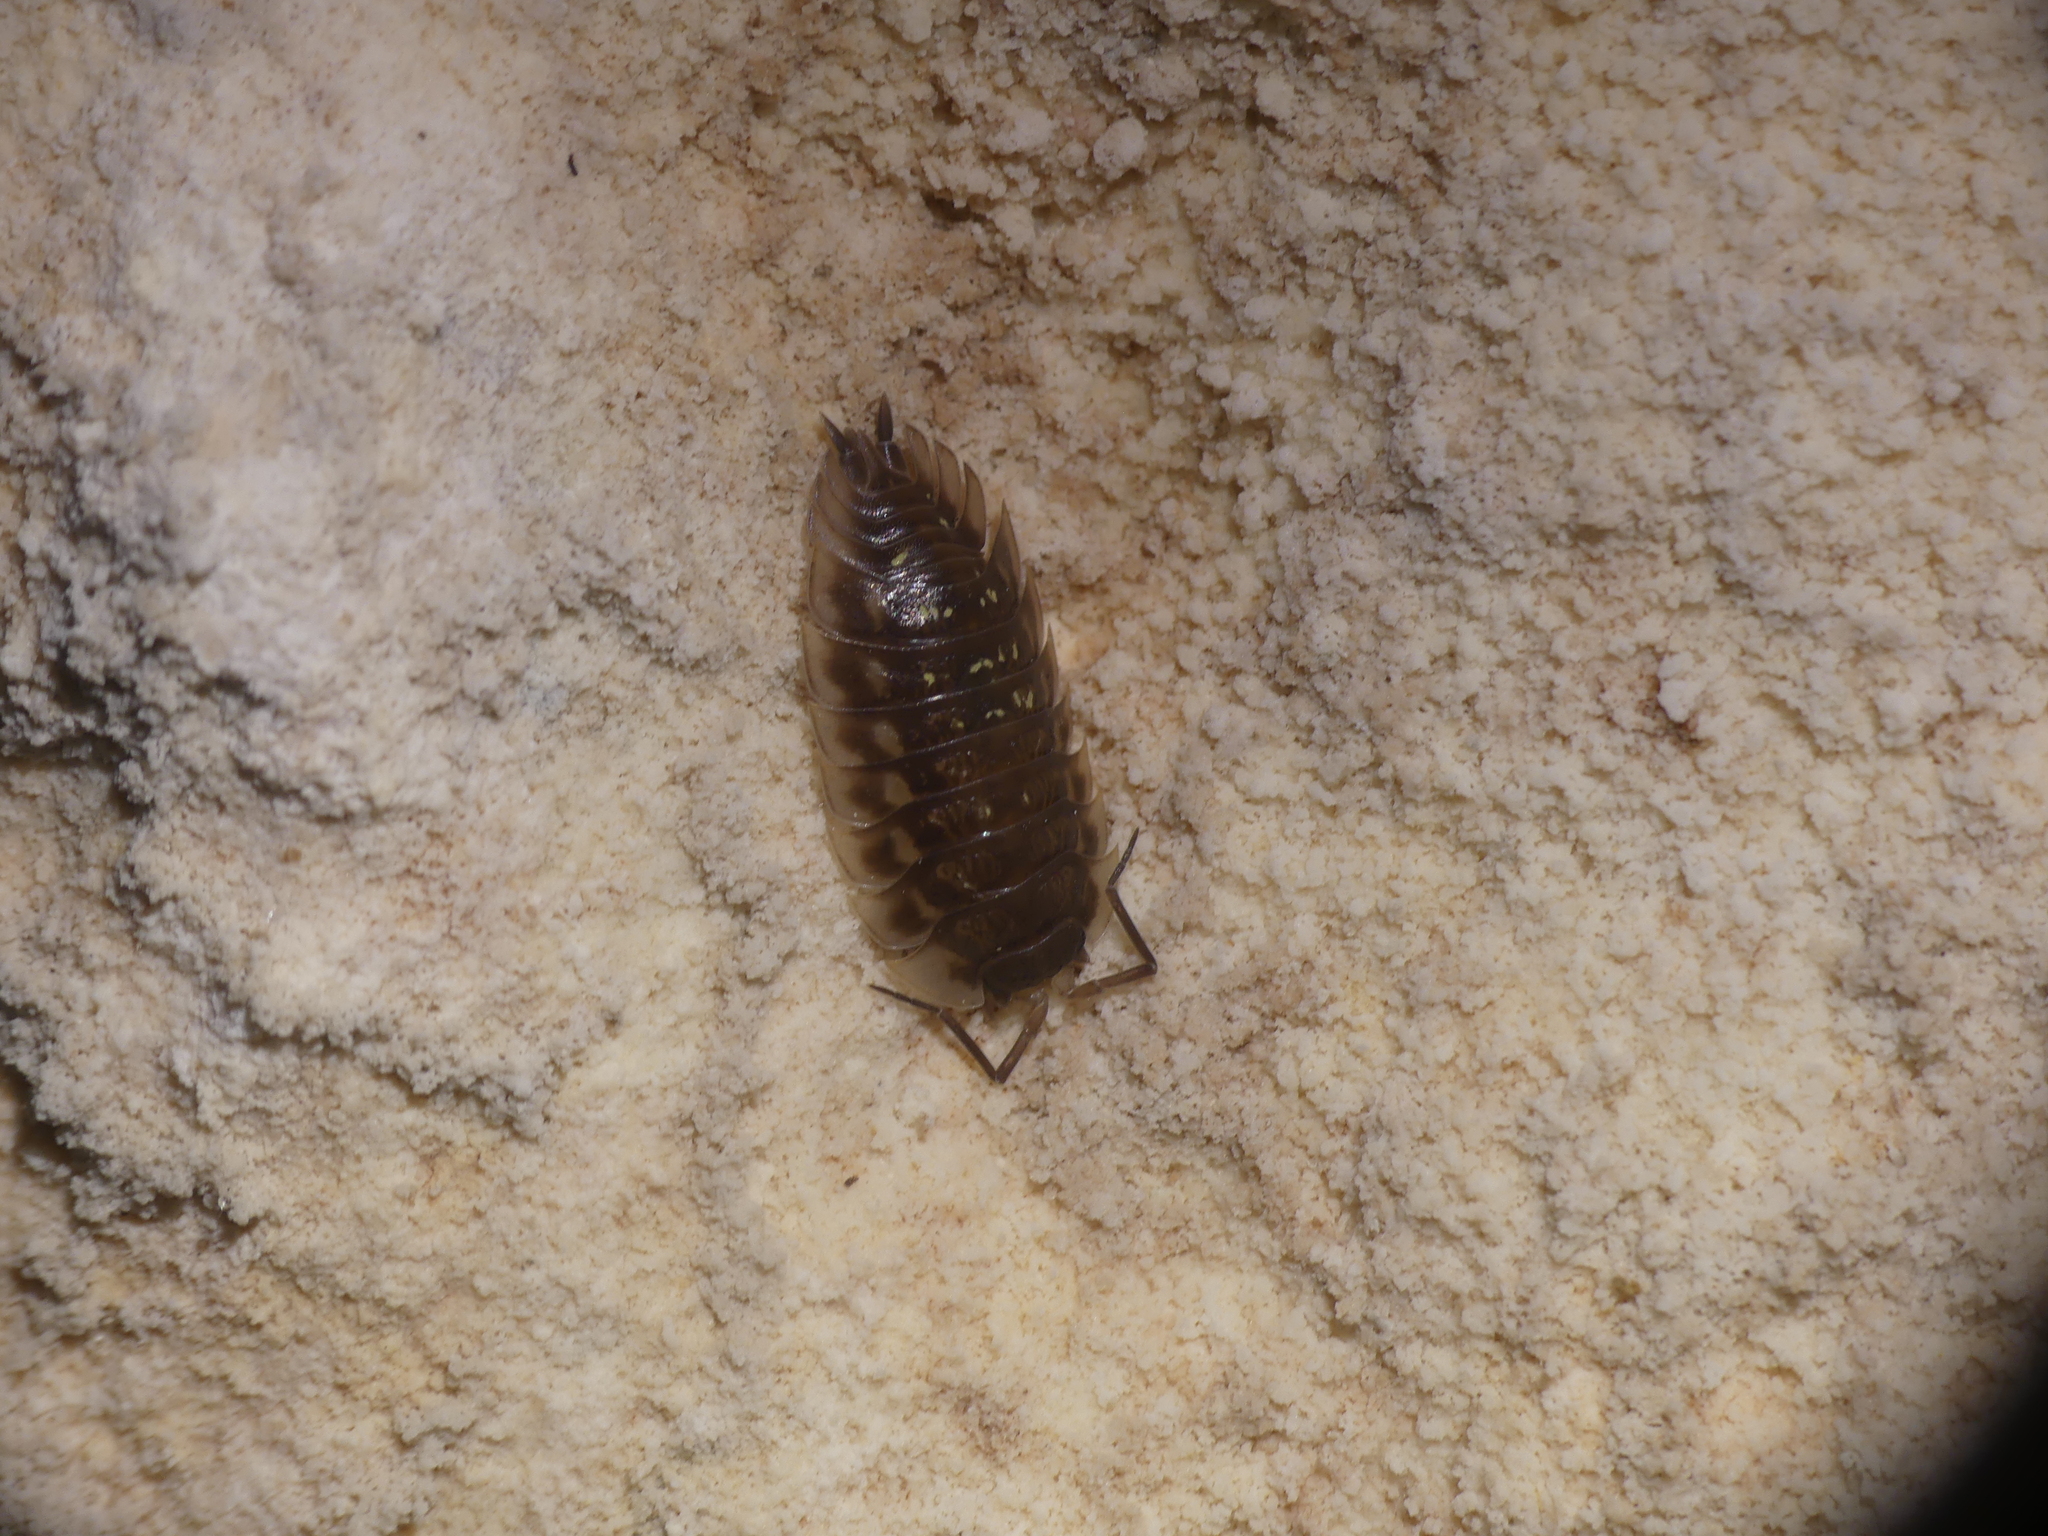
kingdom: Animalia
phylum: Arthropoda
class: Malacostraca
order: Isopoda
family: Oniscidae
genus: Oniscus
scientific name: Oniscus asellus
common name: Common shiny woodlouse
